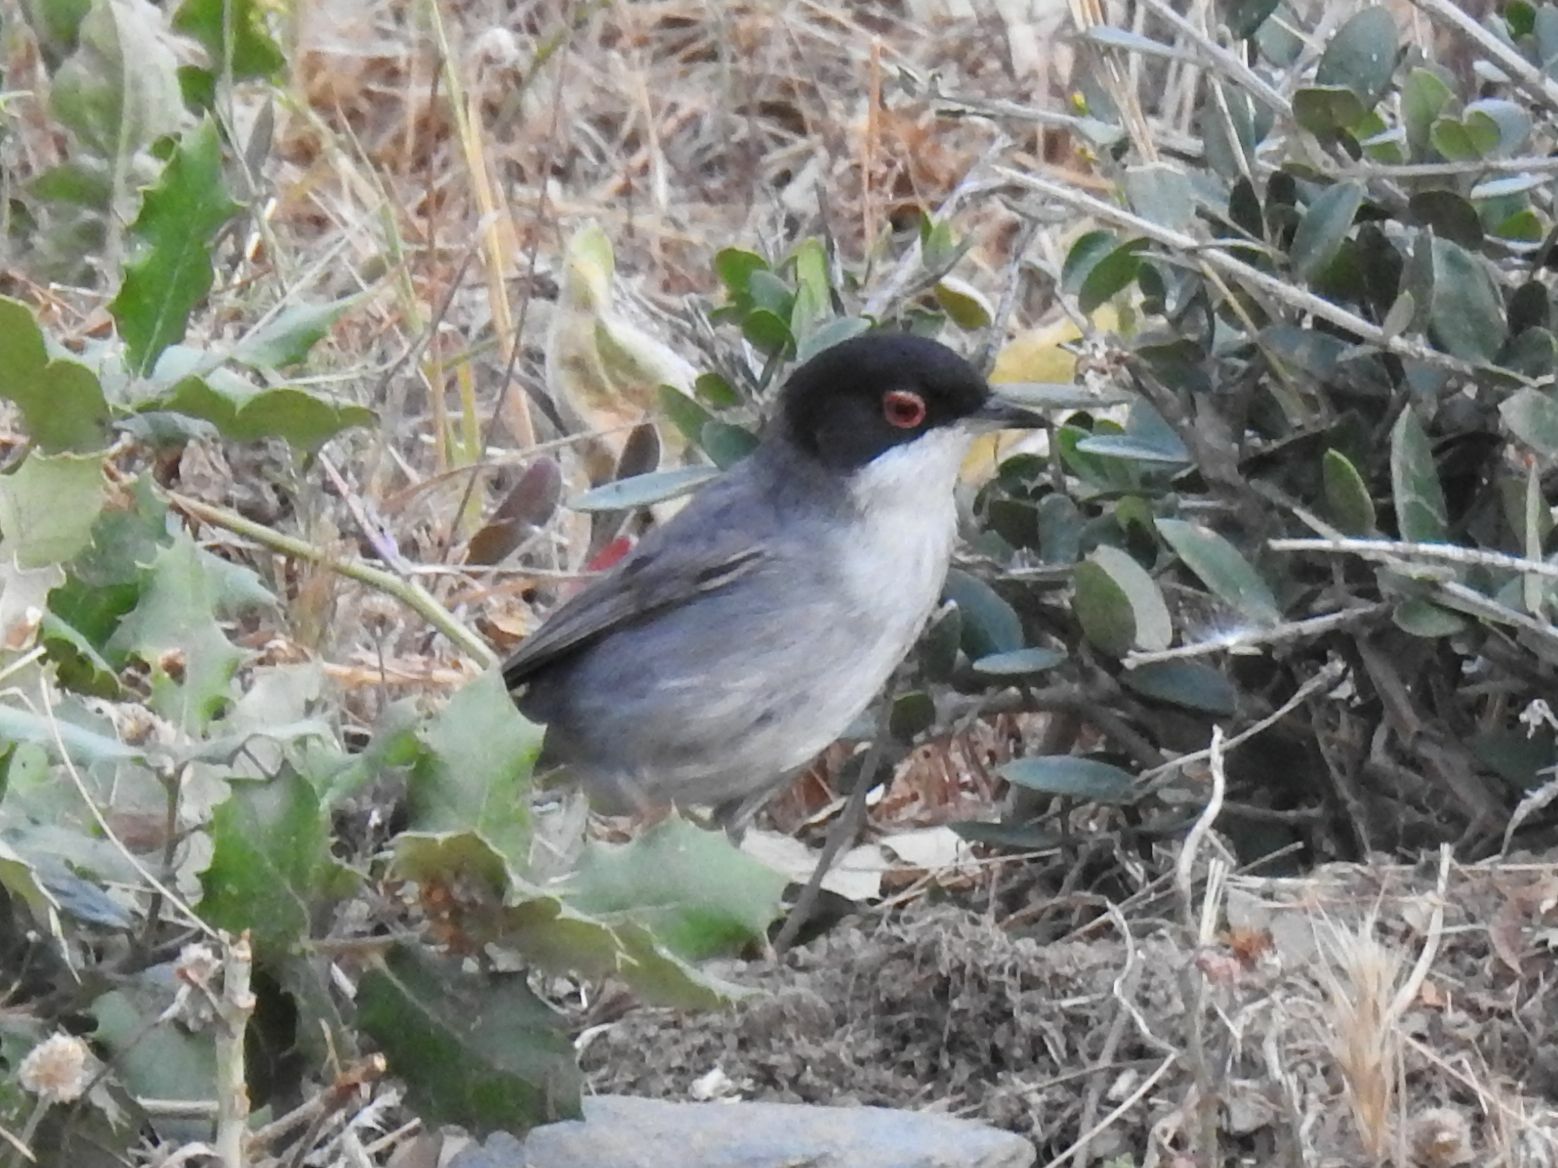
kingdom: Animalia
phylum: Chordata
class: Aves
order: Passeriformes
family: Sylviidae
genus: Curruca
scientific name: Curruca melanocephala
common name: Sardinian warbler
